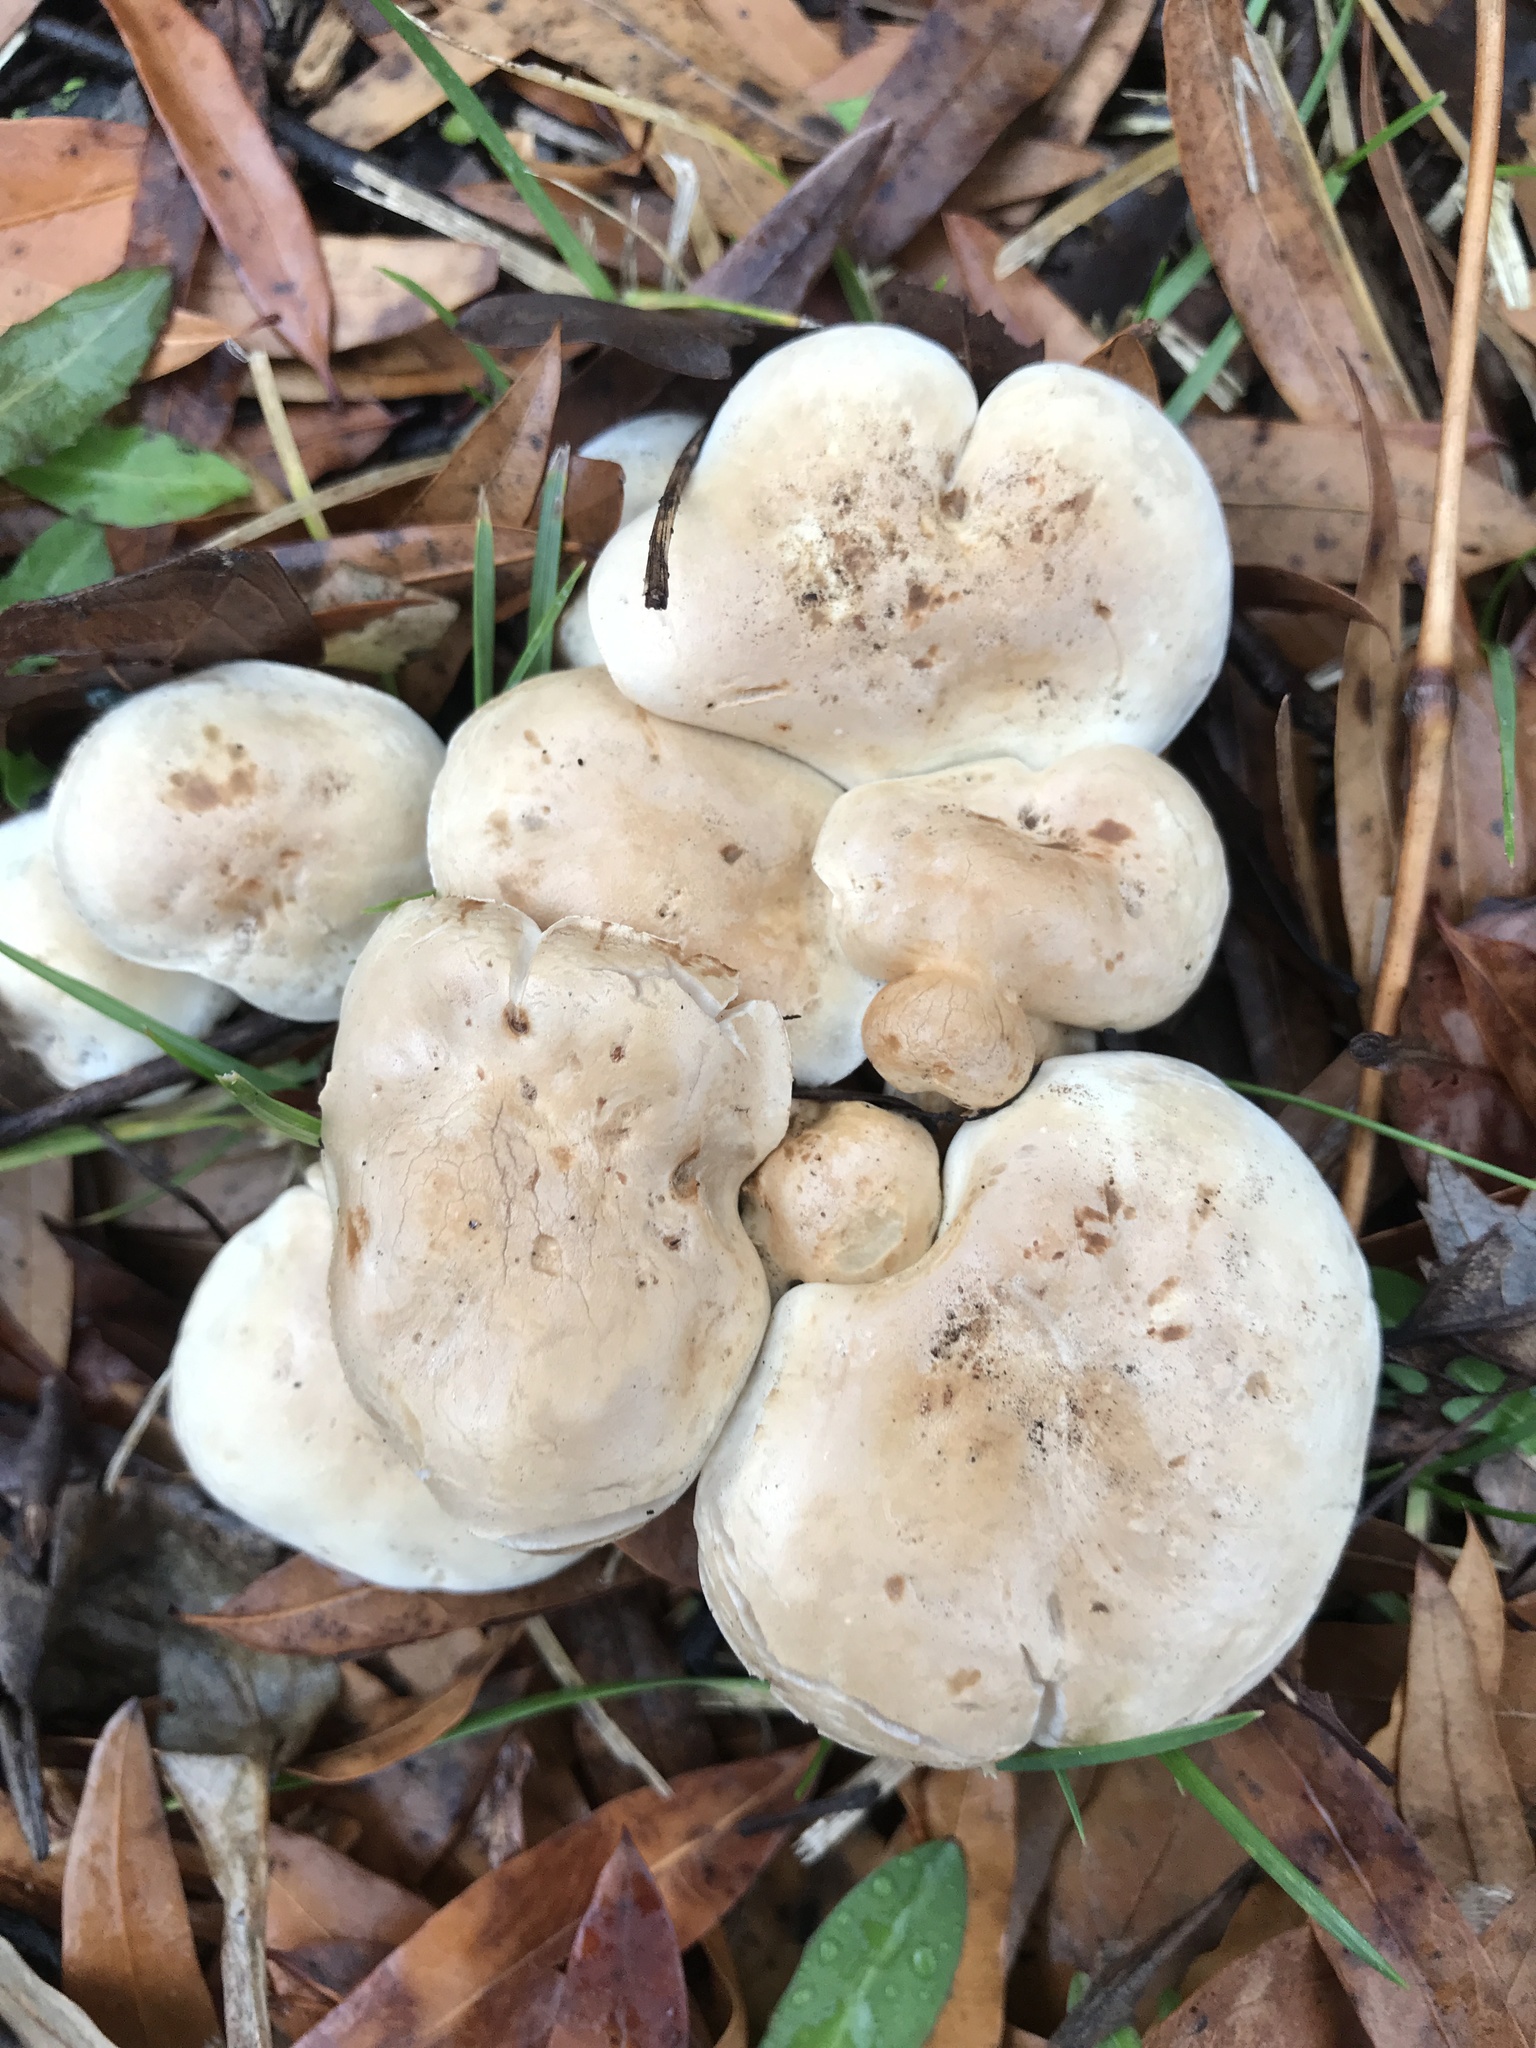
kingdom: Fungi
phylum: Basidiomycota
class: Agaricomycetes
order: Agaricales
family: Hymenogastraceae
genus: Hebeloma
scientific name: Hebeloma crustuliniforme
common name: Poison pie
